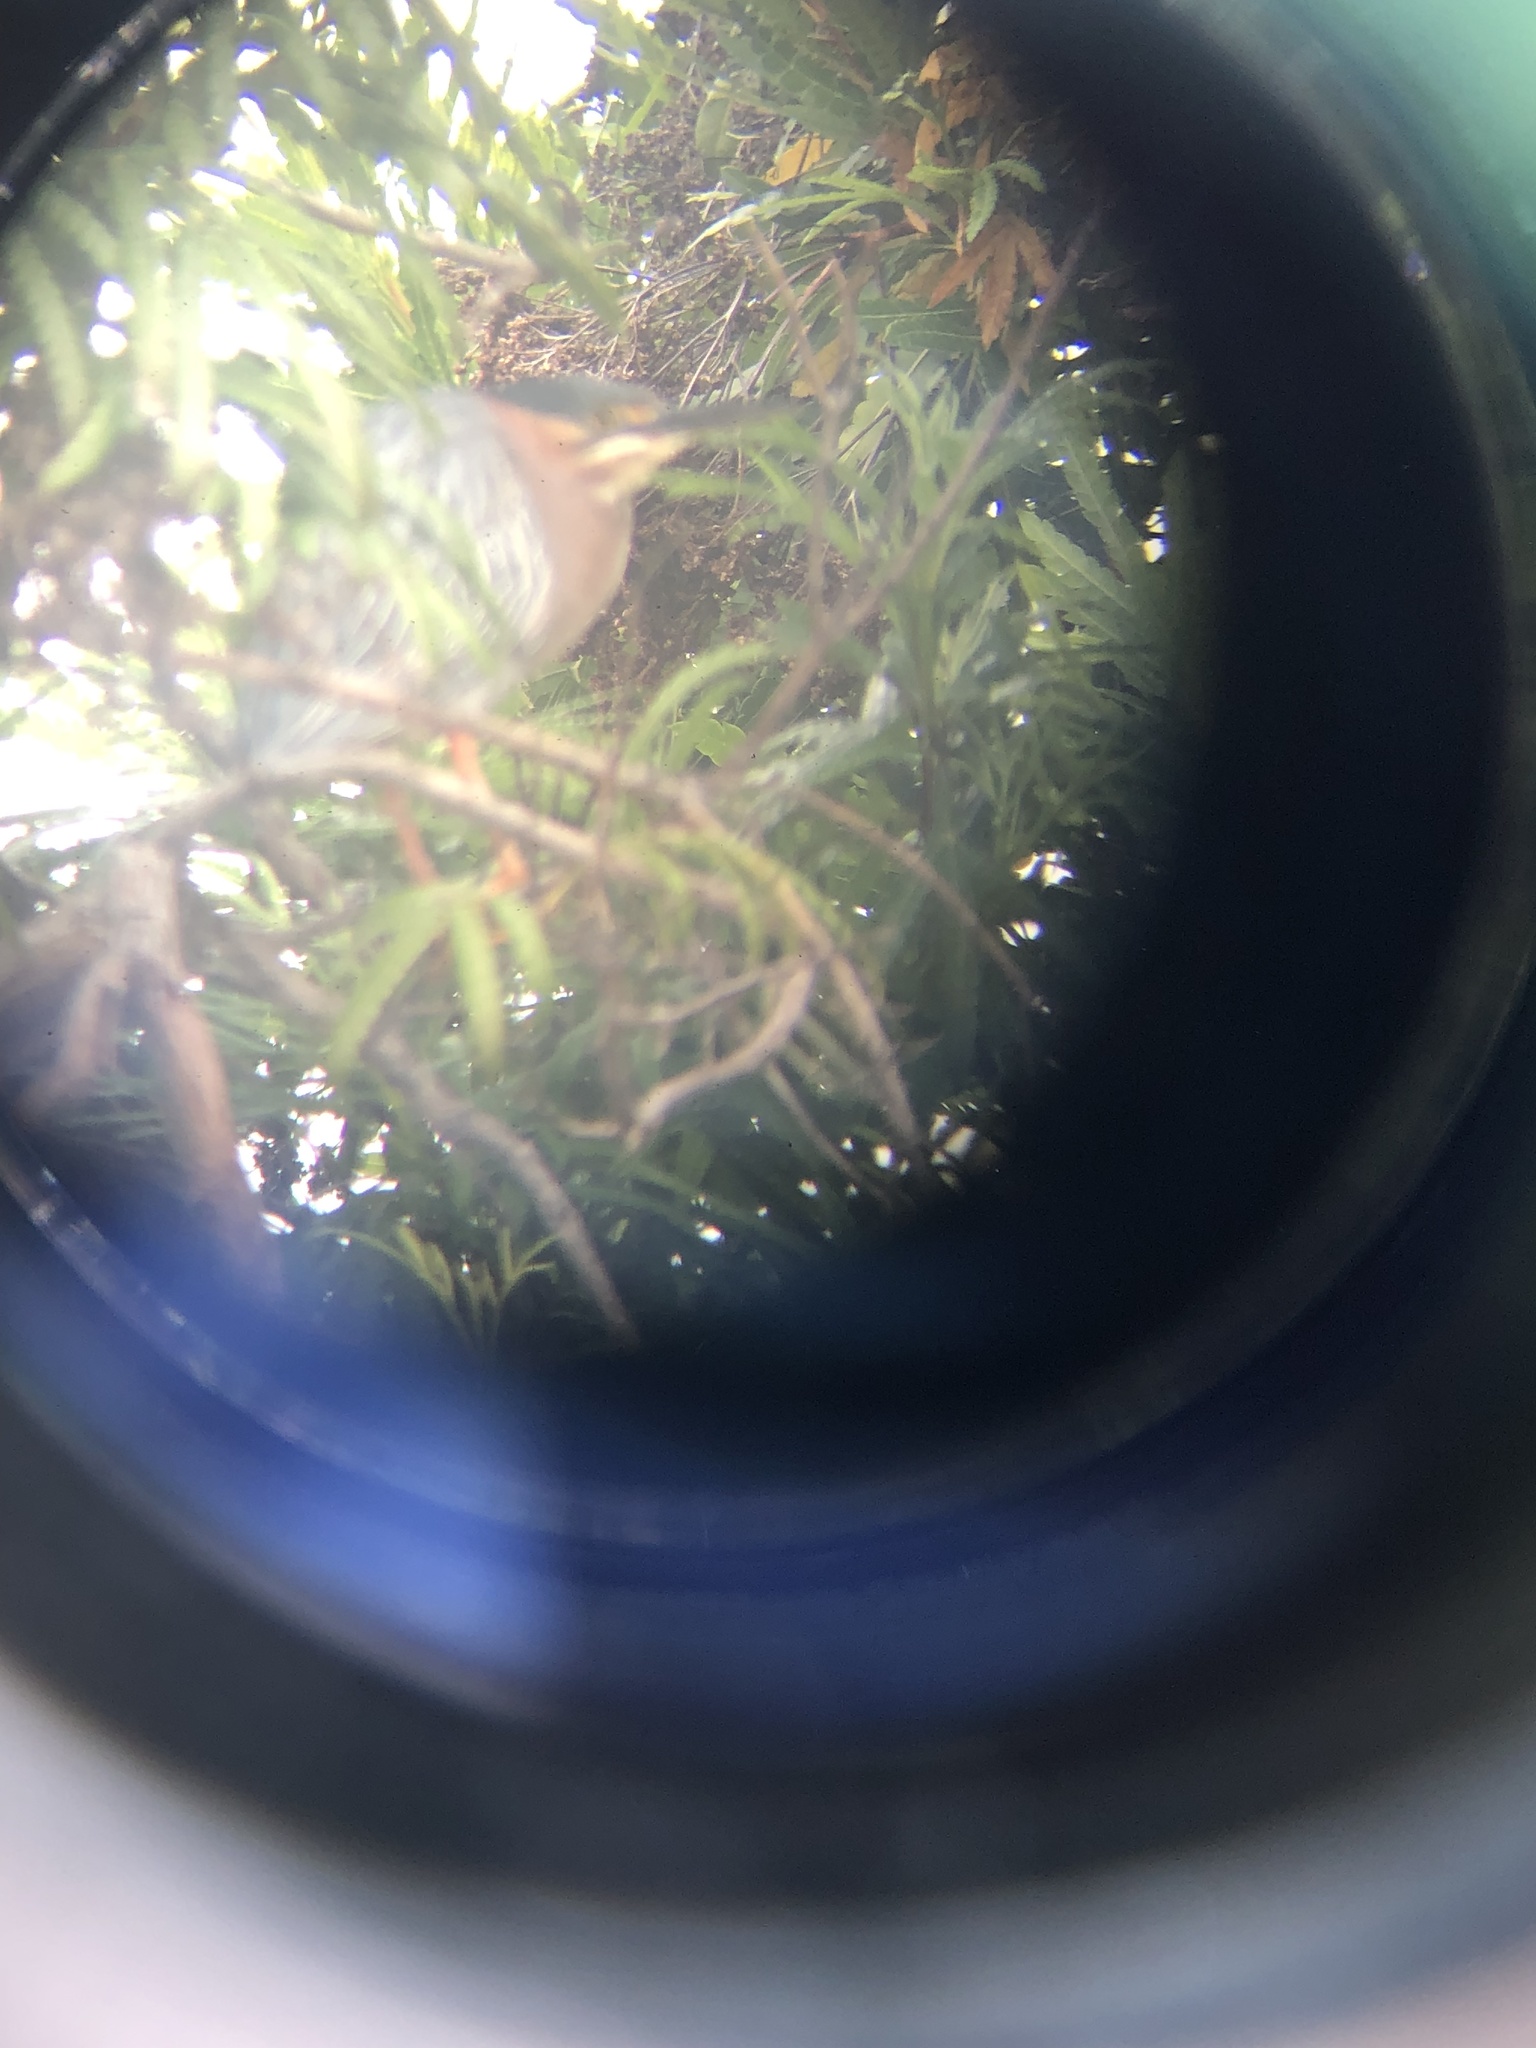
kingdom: Animalia
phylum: Chordata
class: Aves
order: Pelecaniformes
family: Ardeidae
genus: Butorides
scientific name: Butorides virescens
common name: Green heron
